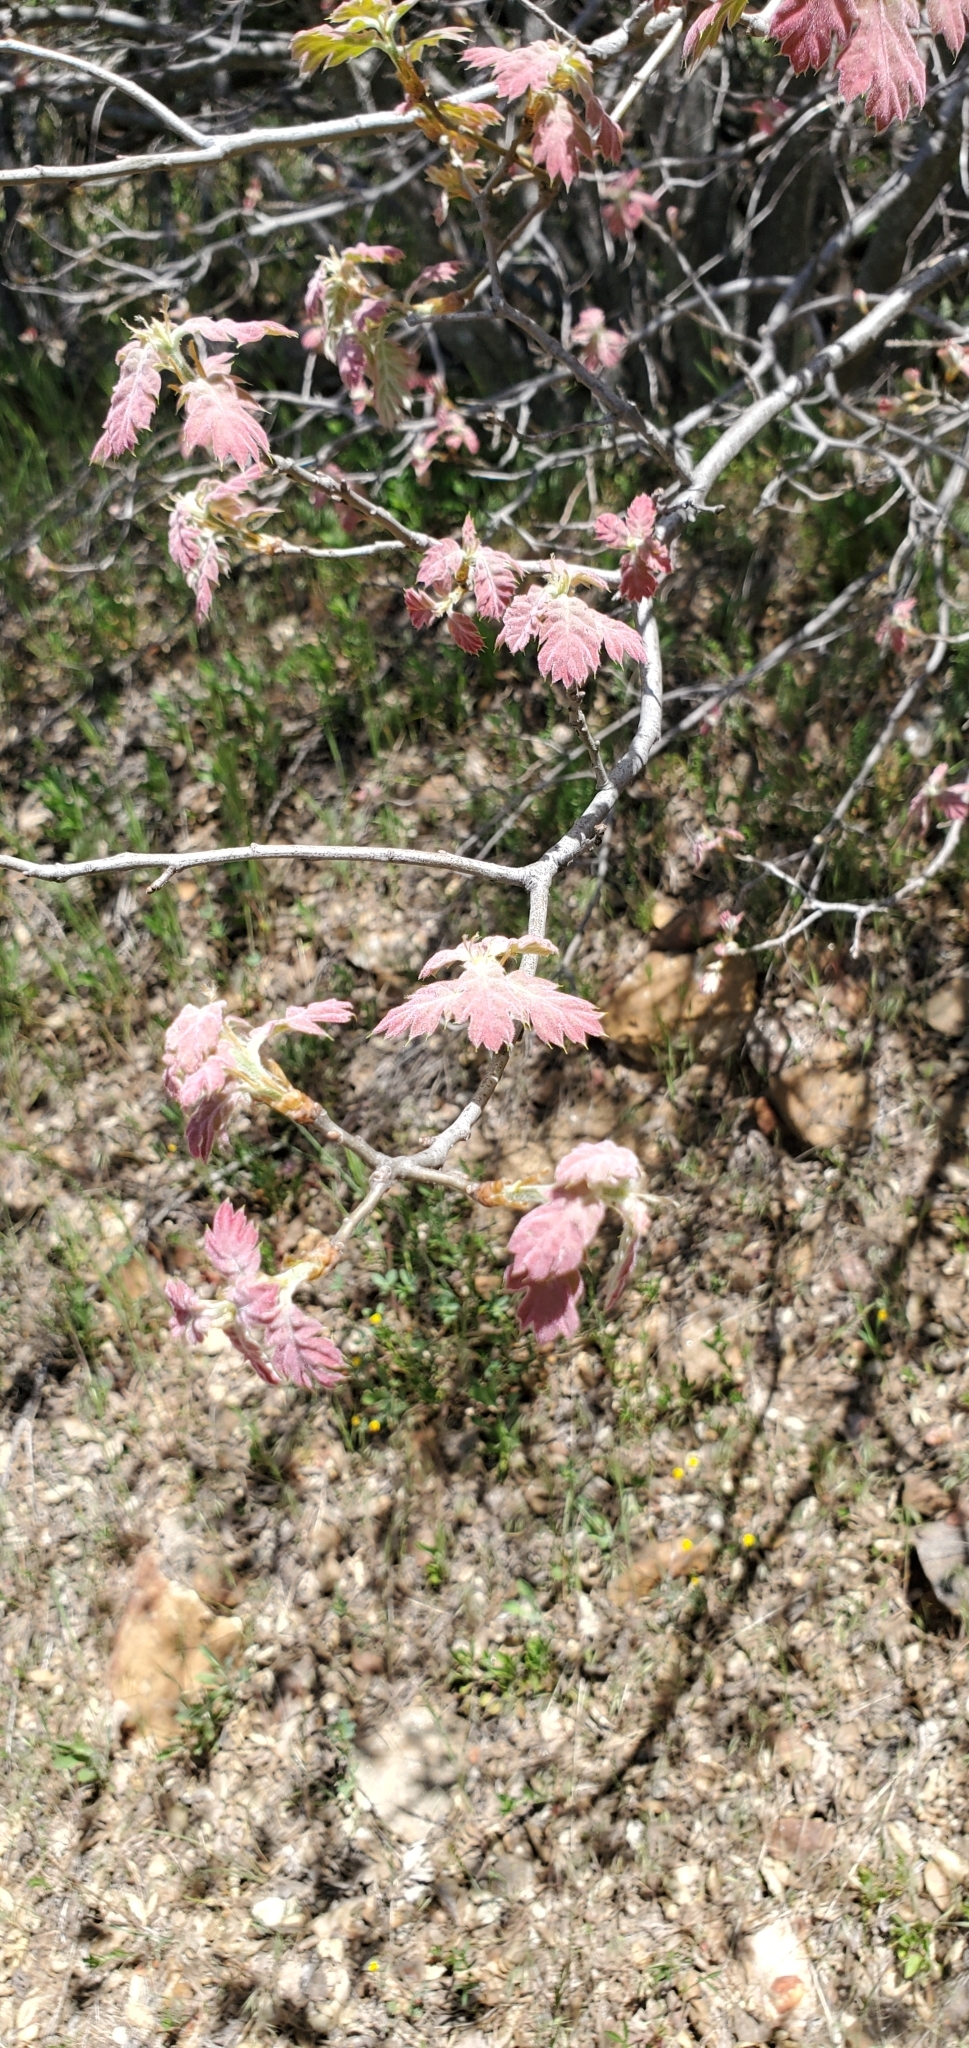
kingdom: Plantae
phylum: Tracheophyta
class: Magnoliopsida
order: Fagales
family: Fagaceae
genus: Quercus
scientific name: Quercus kelloggii
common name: California black oak
